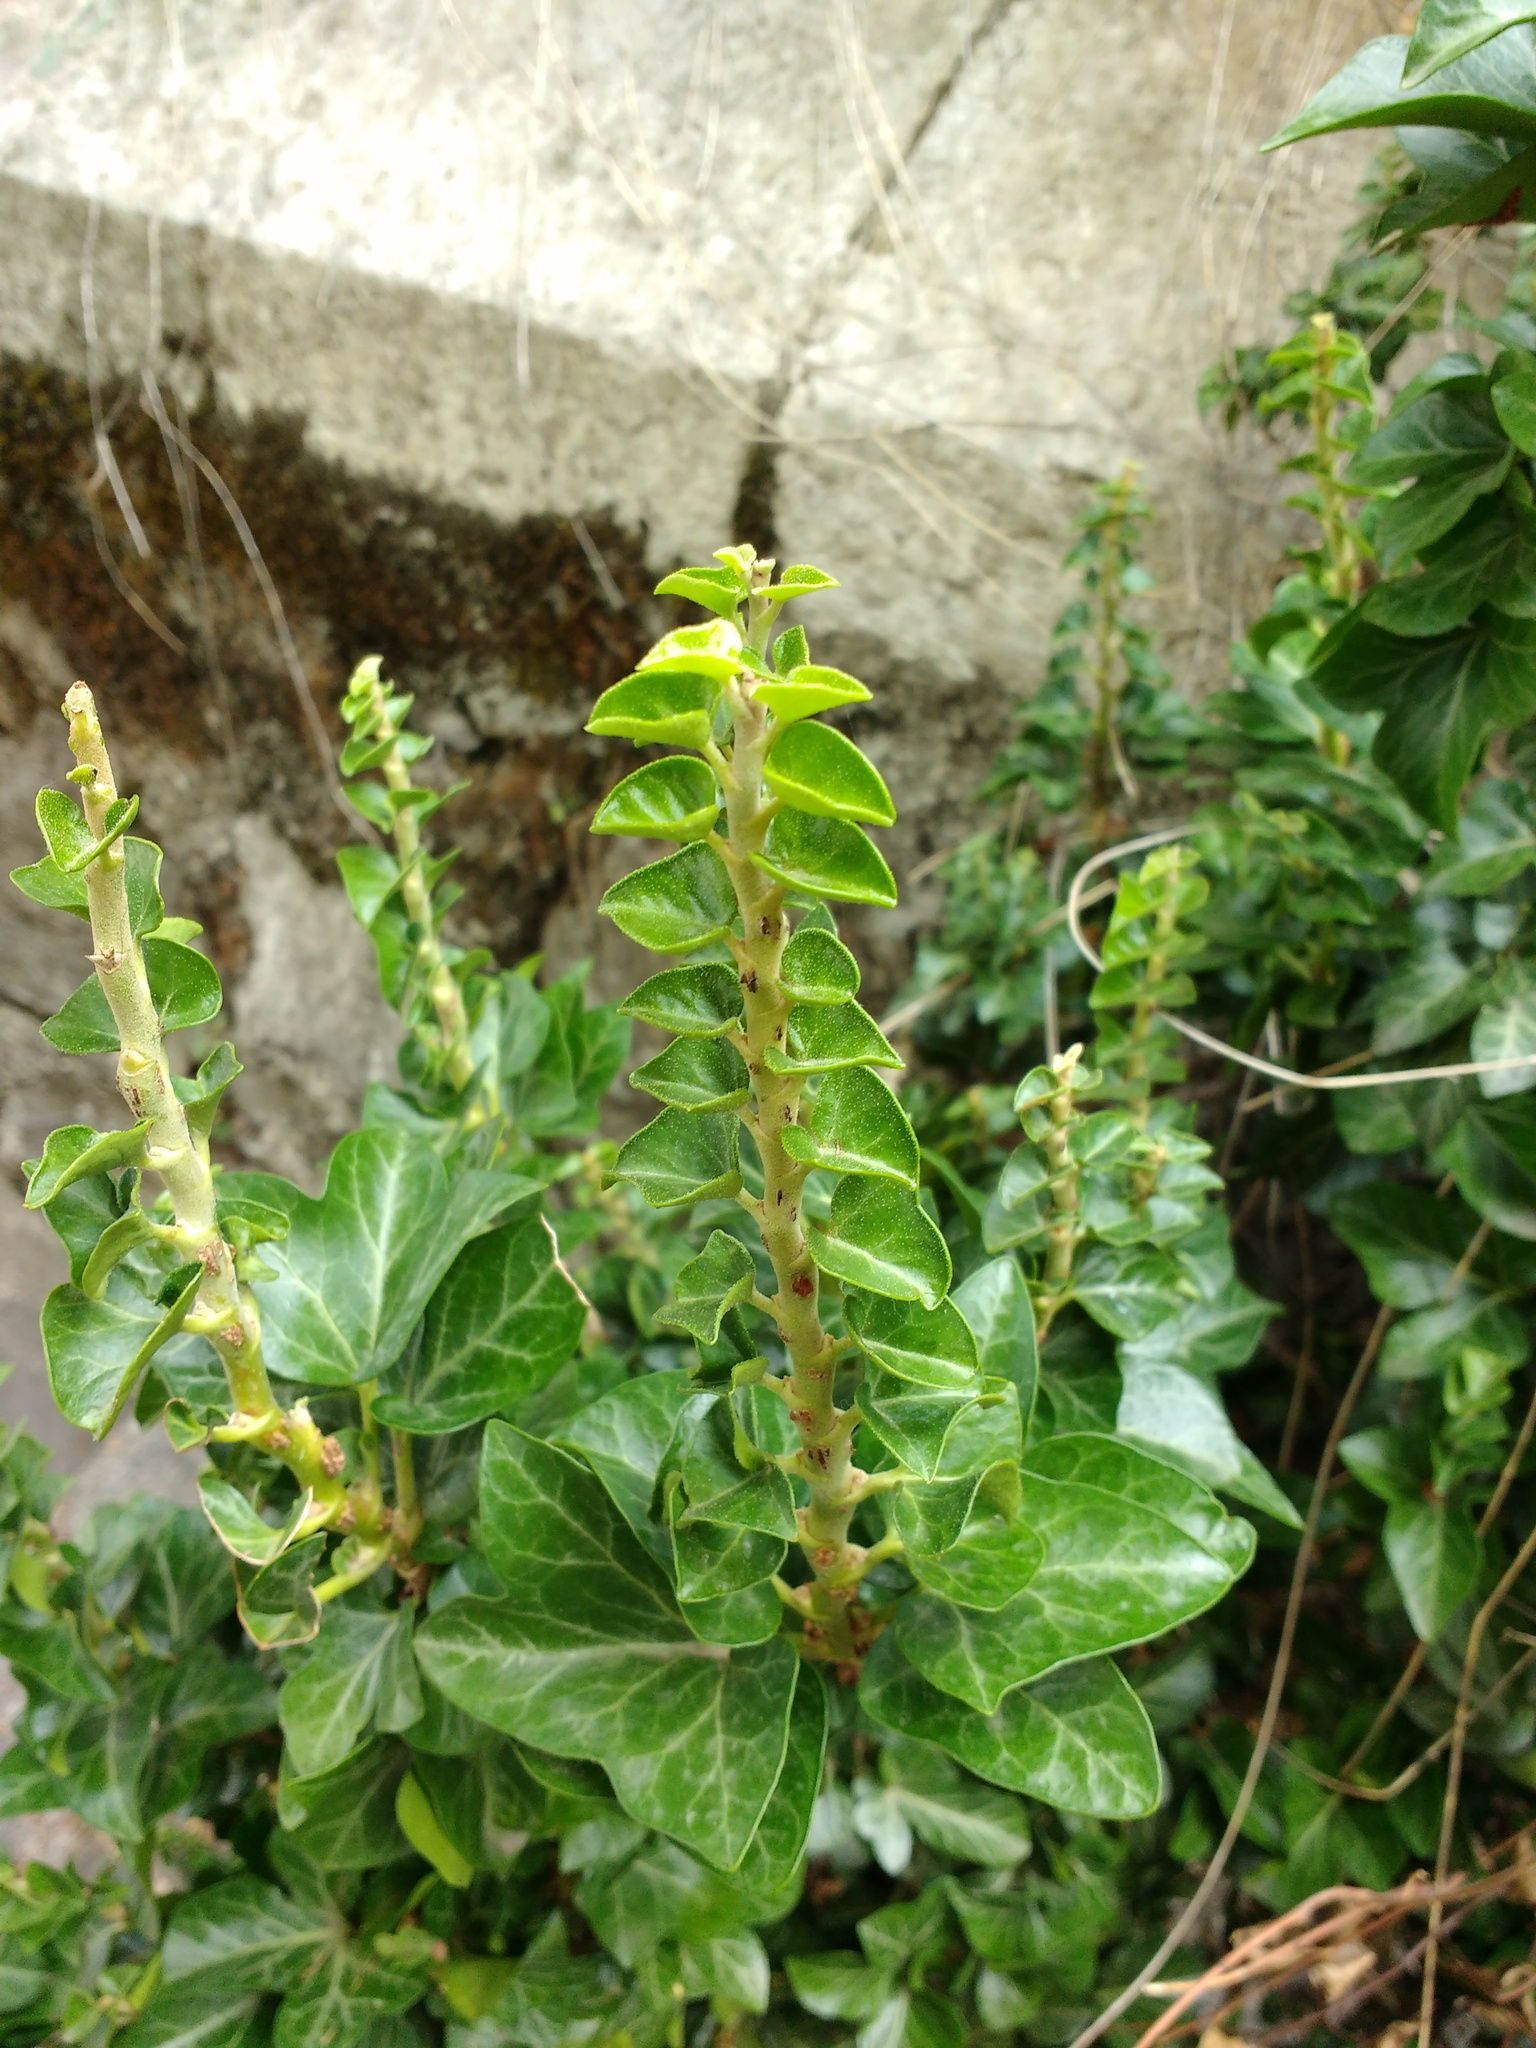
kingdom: Plantae
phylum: Tracheophyta
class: Magnoliopsida
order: Apiales
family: Araliaceae
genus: Hedera
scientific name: Hedera helix
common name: Ivy
